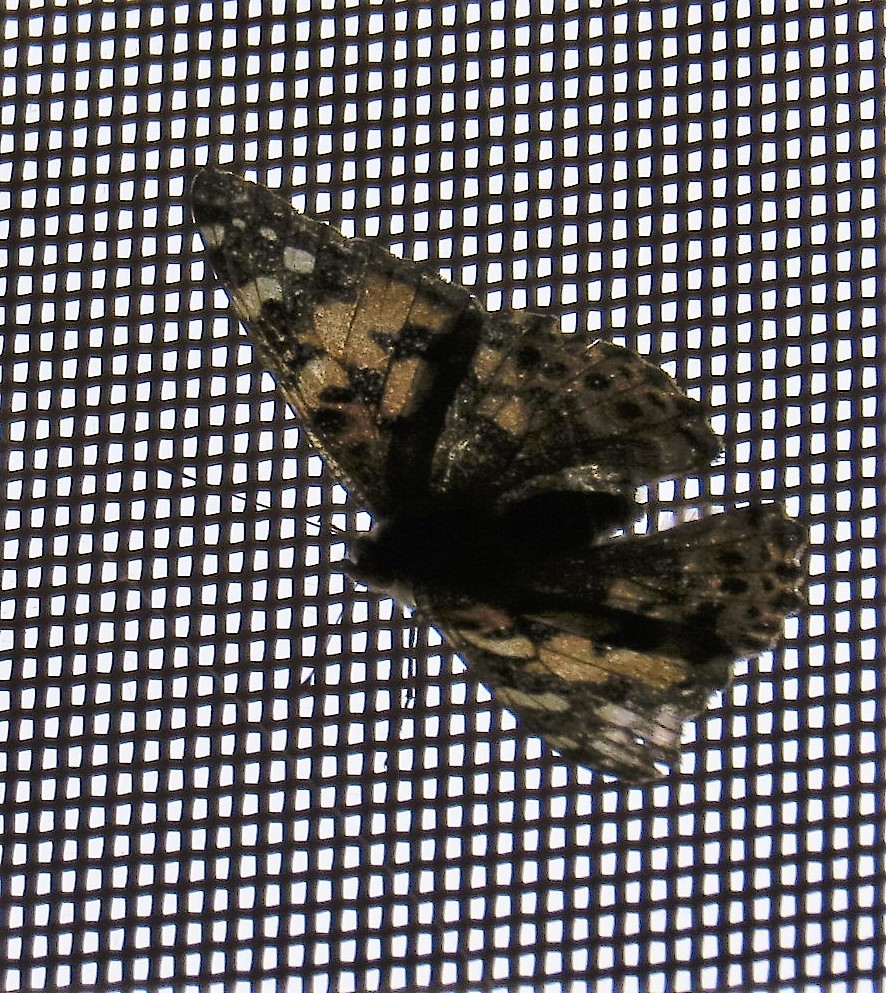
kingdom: Animalia
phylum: Arthropoda
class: Insecta
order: Lepidoptera
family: Nymphalidae
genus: Vanessa
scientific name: Vanessa cardui
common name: Painted lady
